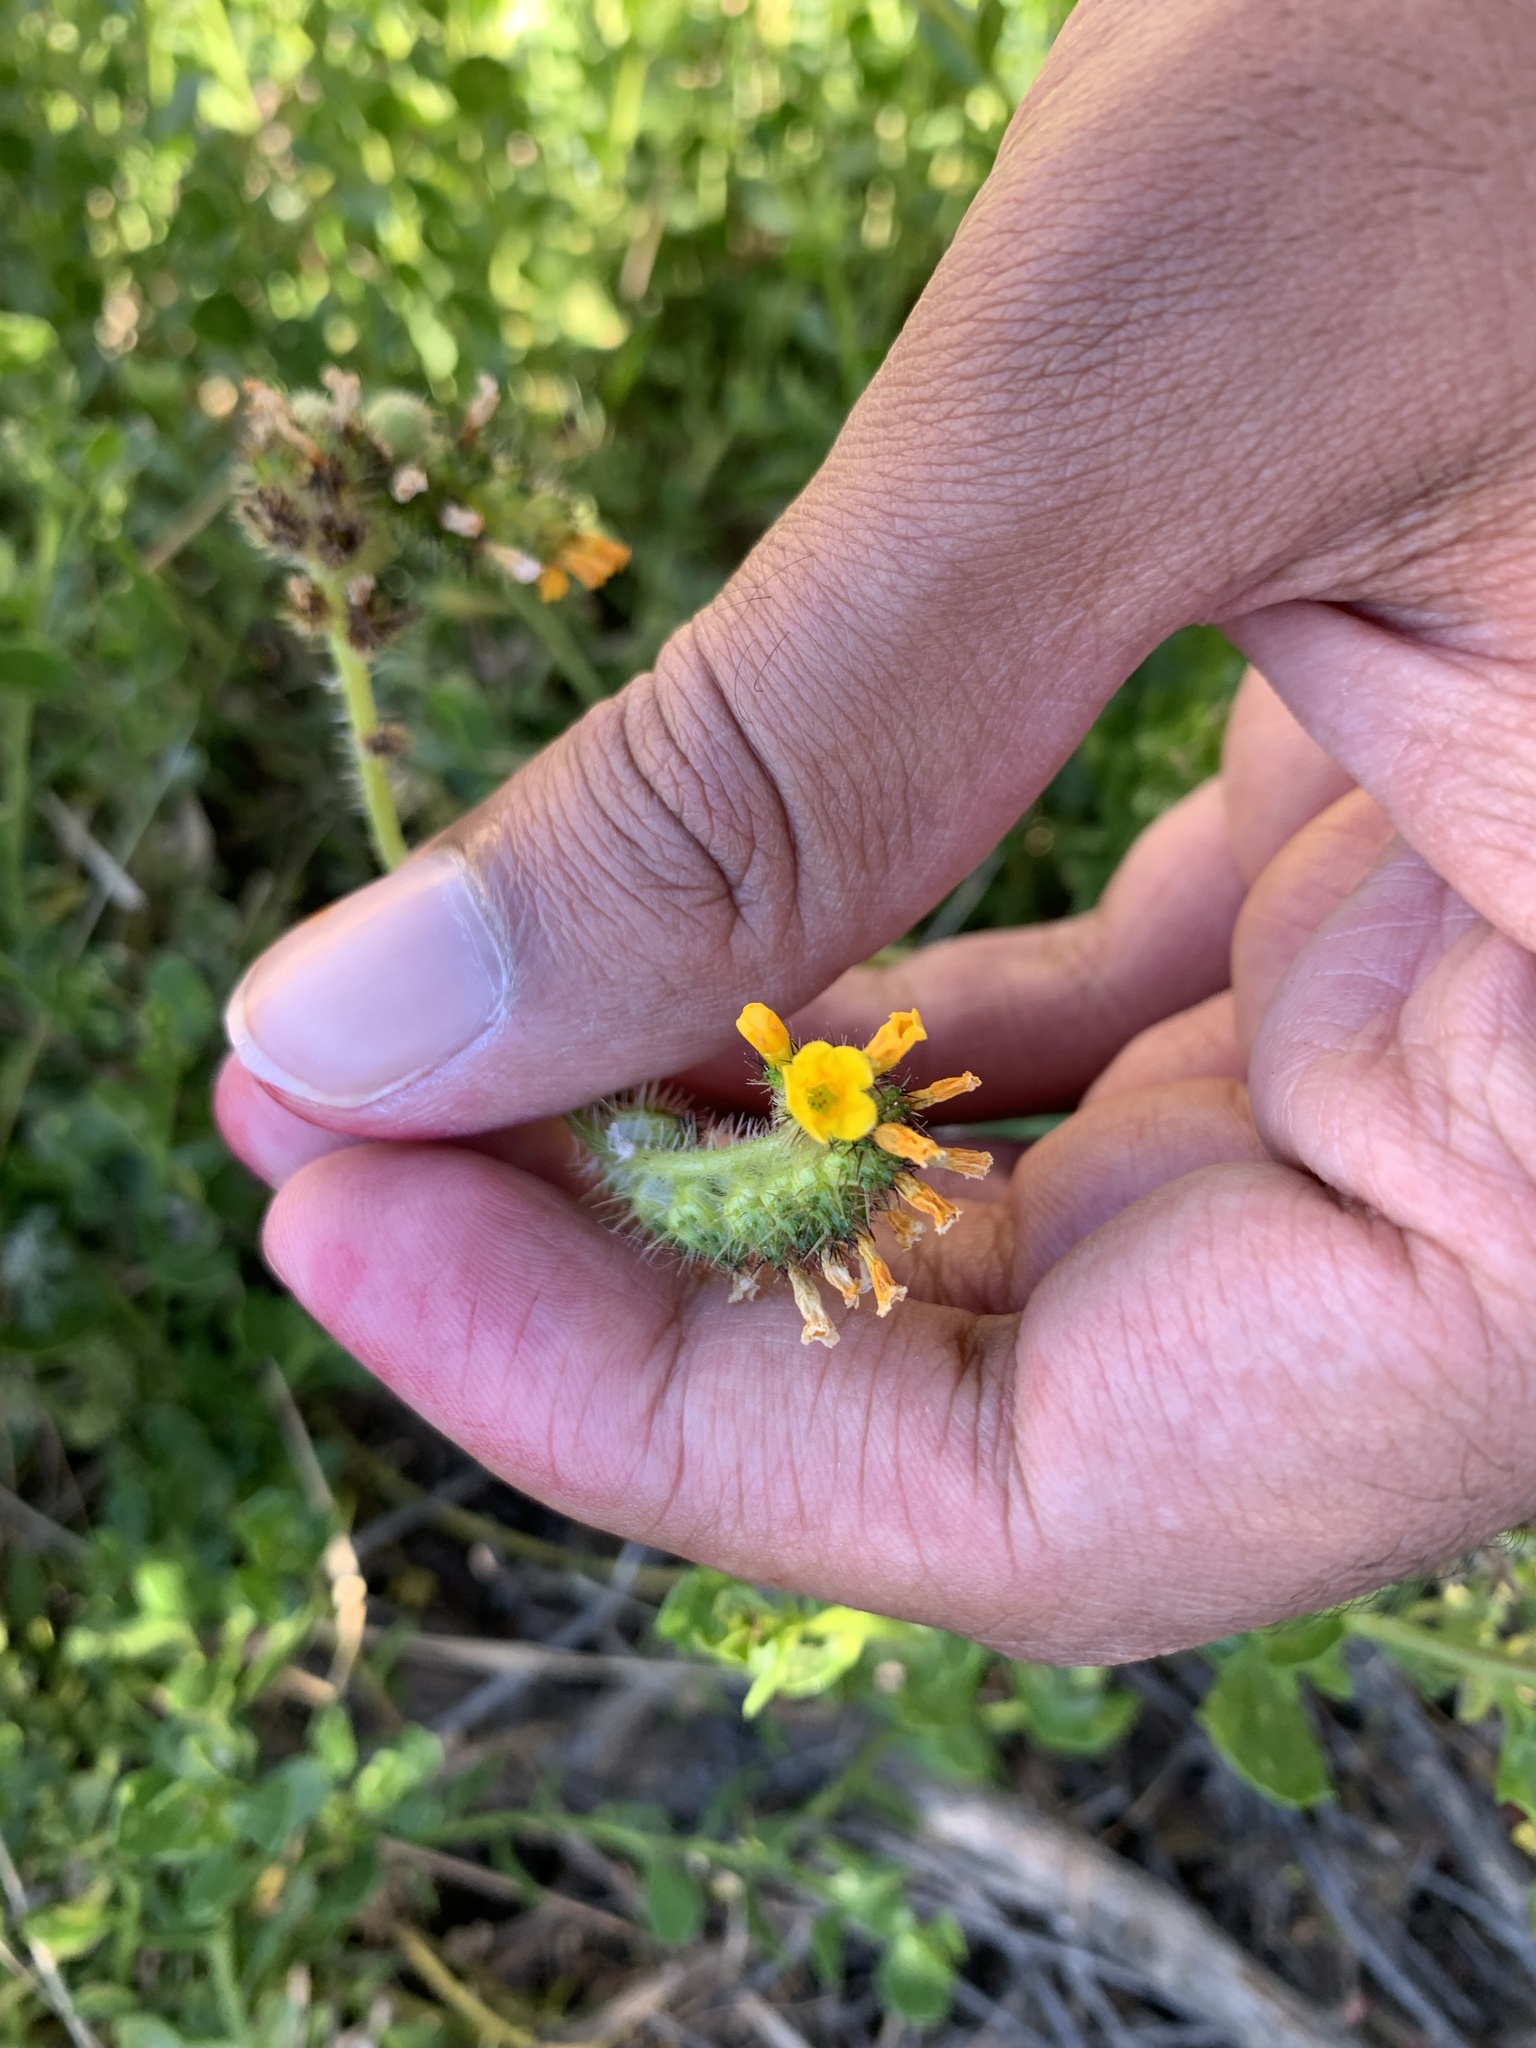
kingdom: Plantae
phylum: Tracheophyta
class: Magnoliopsida
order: Boraginales
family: Boraginaceae
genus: Amsinckia
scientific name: Amsinckia spectabilis
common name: Seaside fiddleneck
